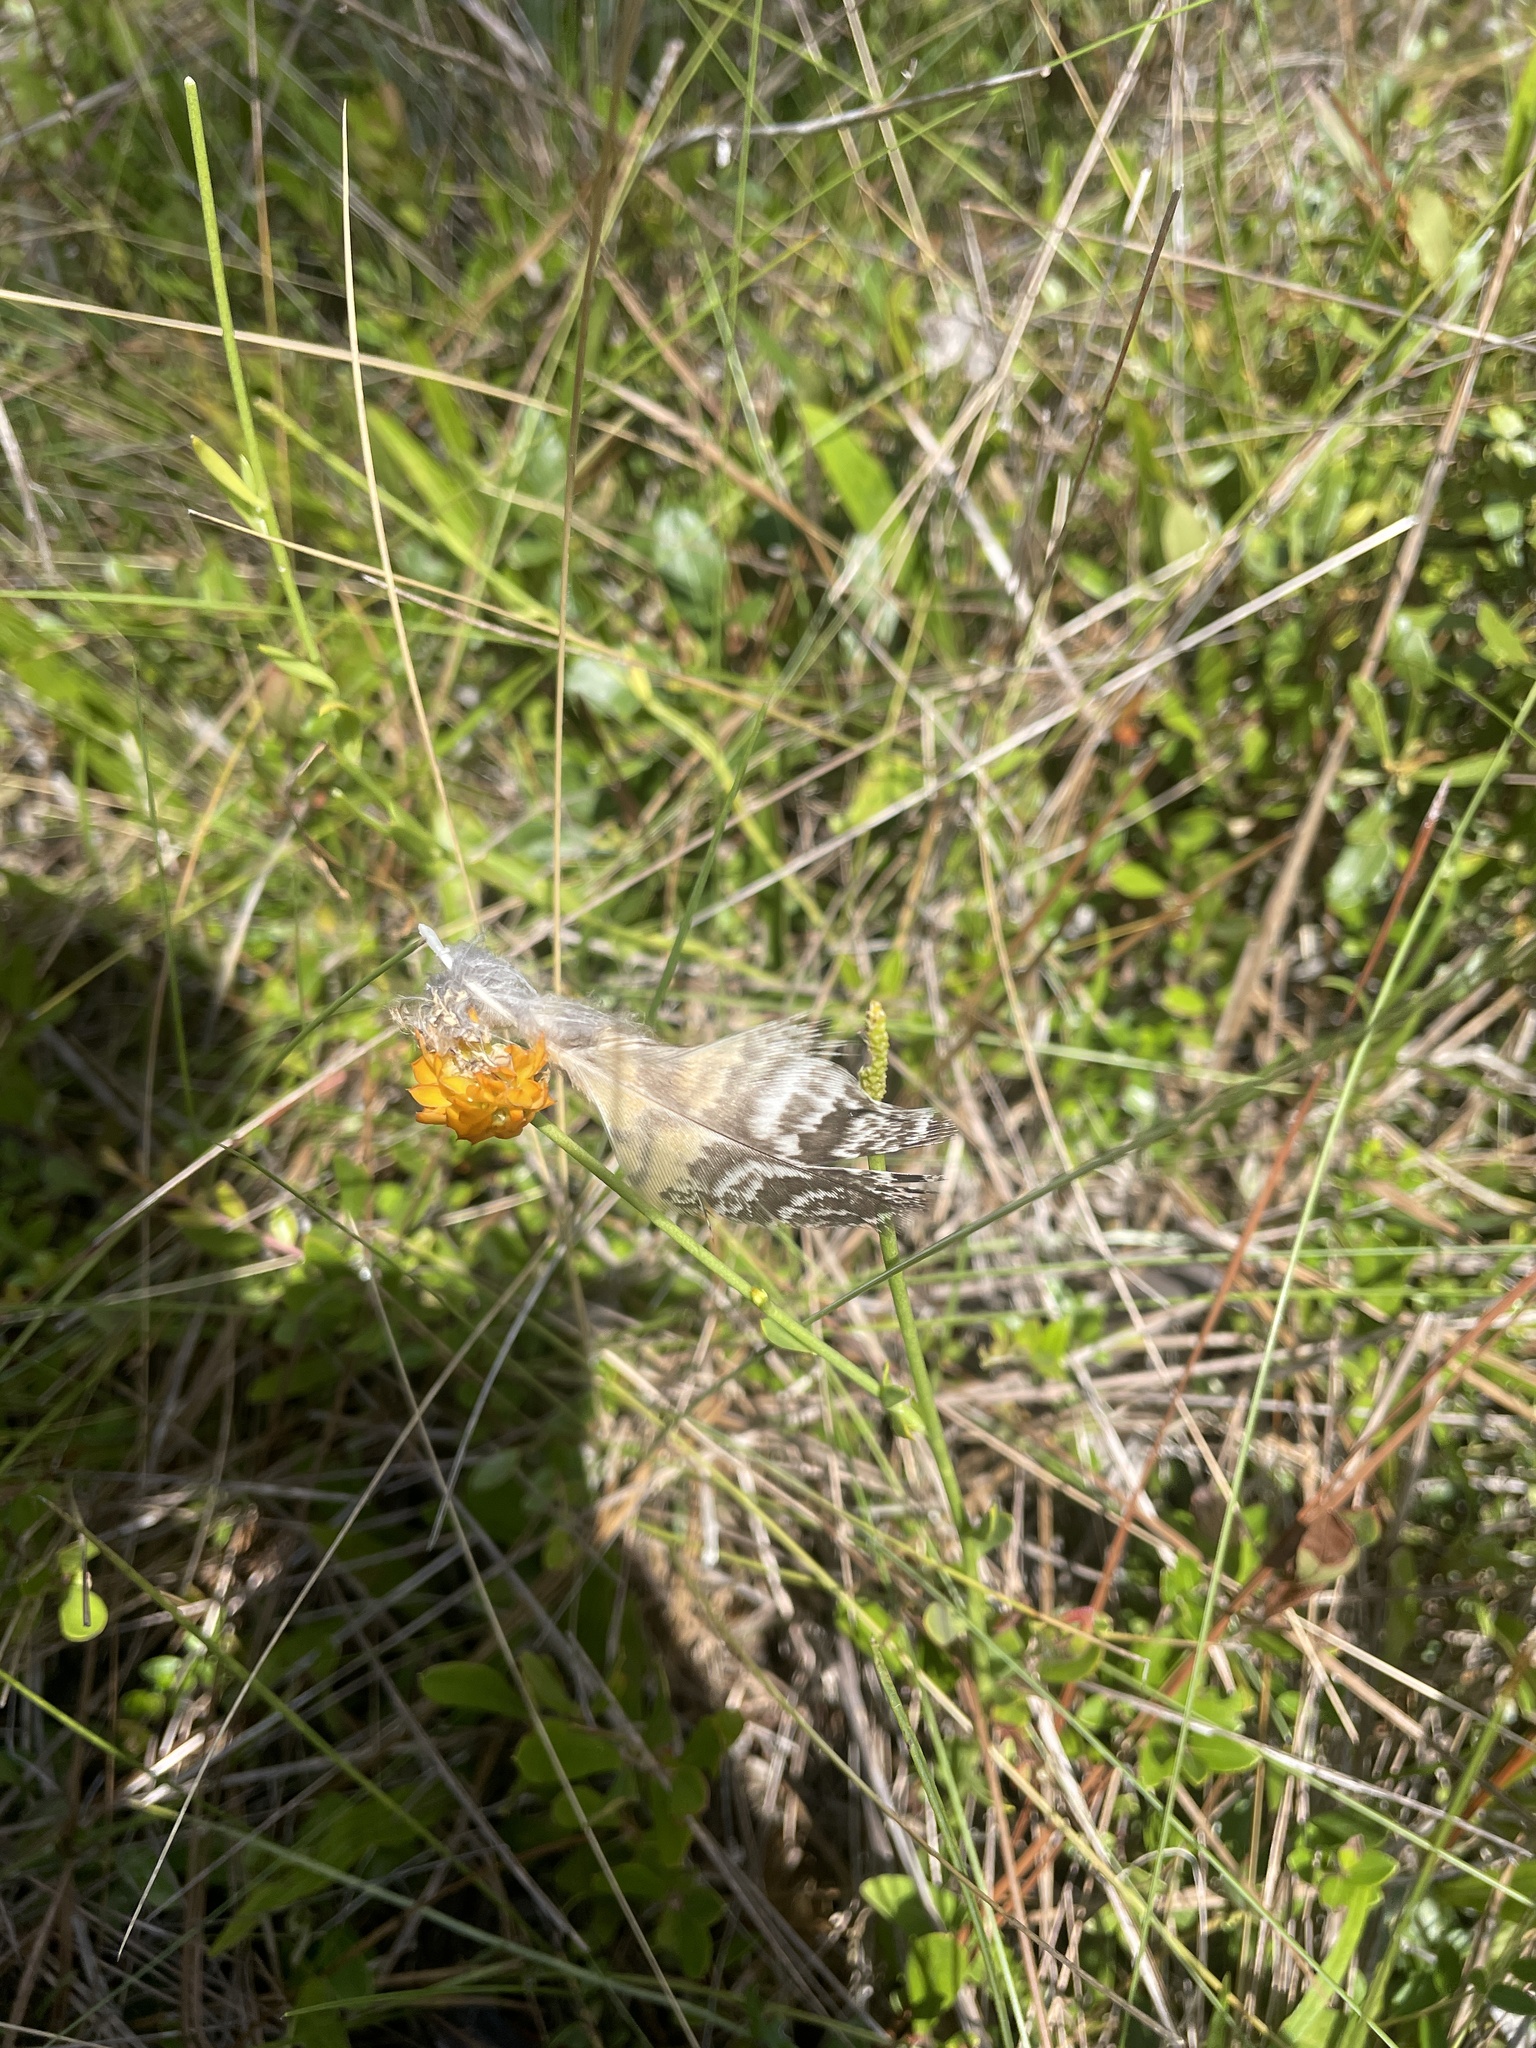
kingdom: Animalia
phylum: Chordata
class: Aves
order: Strigiformes
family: Strigidae
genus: Bubo
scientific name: Bubo virginianus
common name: Great horned owl
